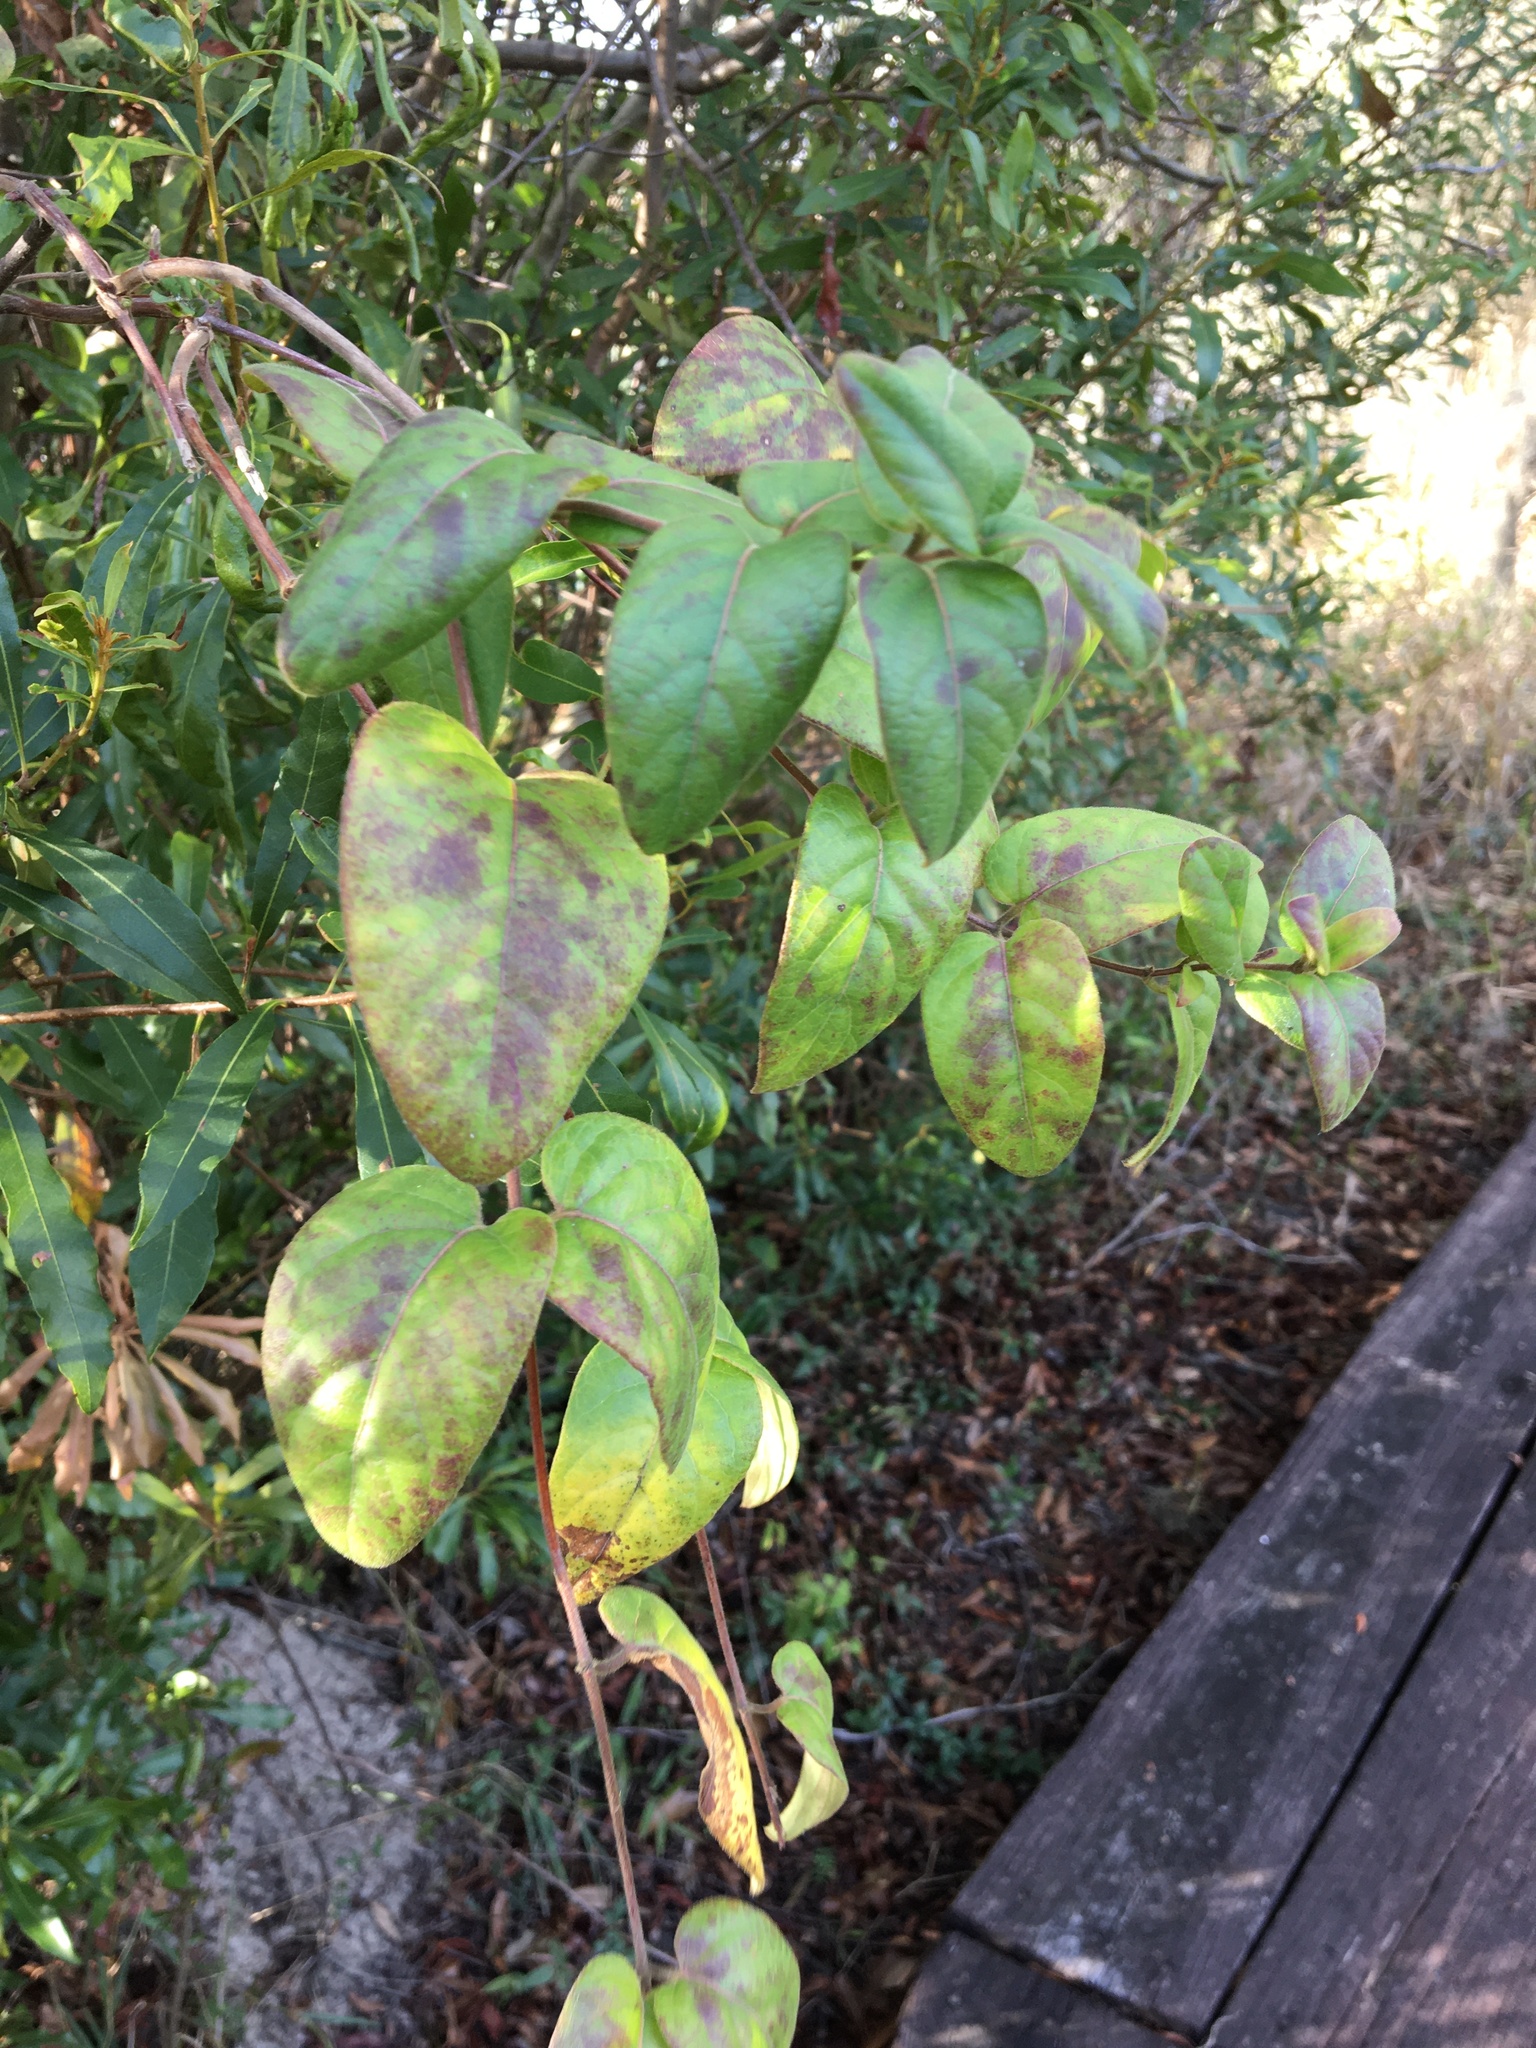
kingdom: Plantae
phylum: Tracheophyta
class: Magnoliopsida
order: Dipsacales
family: Caprifoliaceae
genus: Lonicera
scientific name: Lonicera japonica
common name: Japanese honeysuckle
